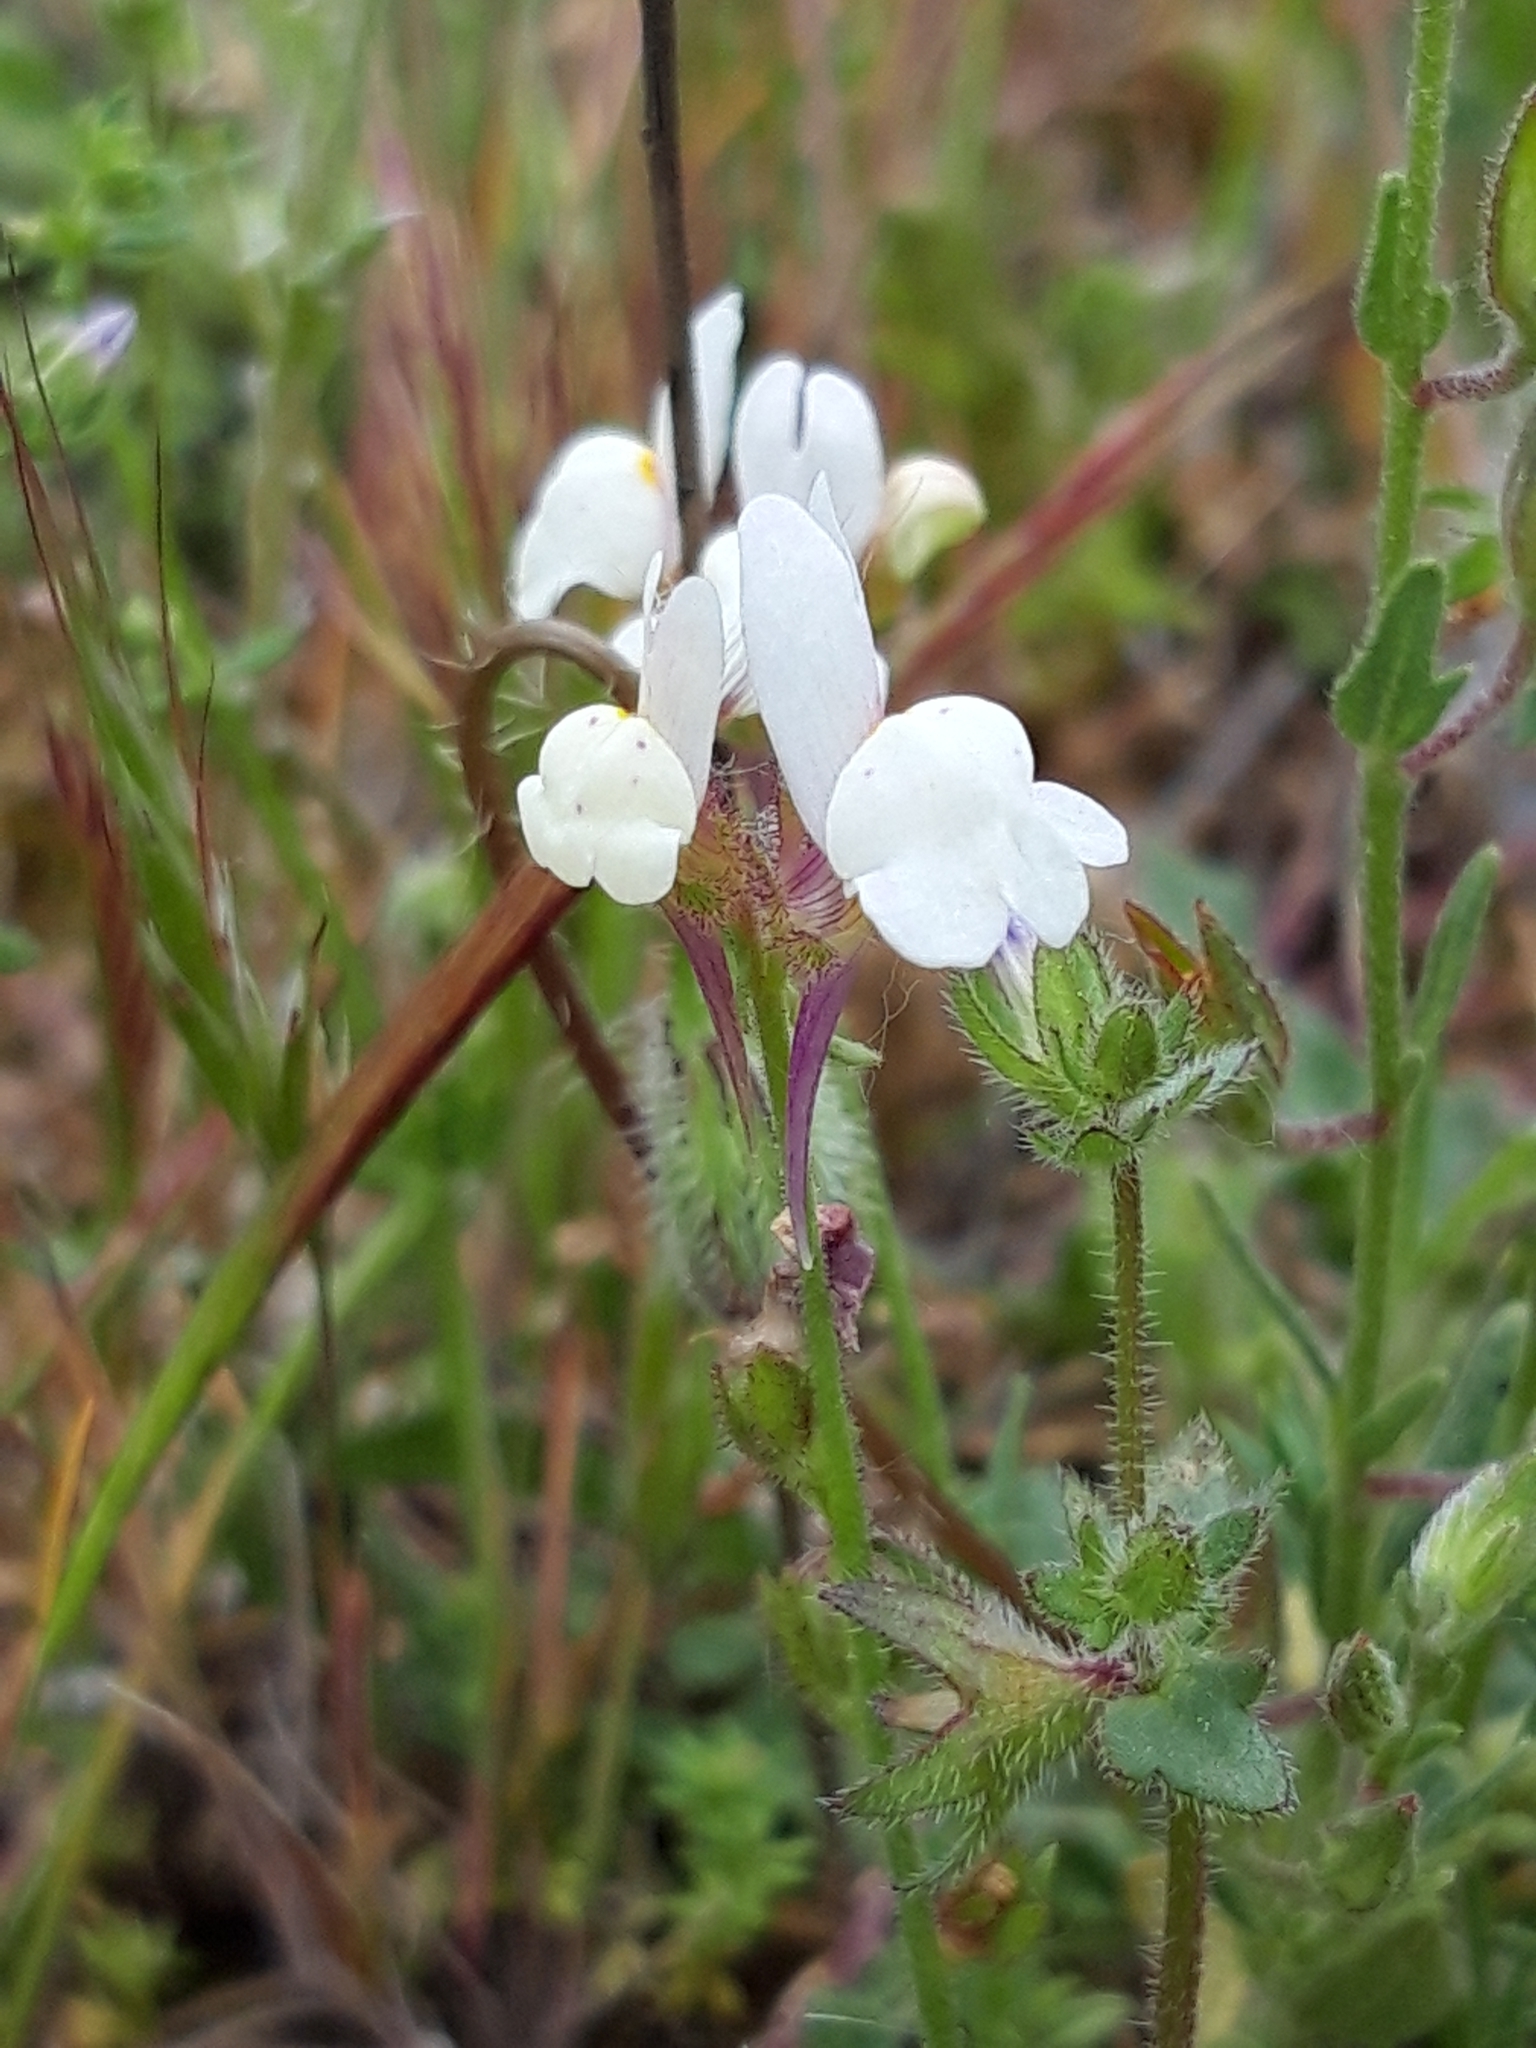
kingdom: Plantae
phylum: Tracheophyta
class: Magnoliopsida
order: Lamiales
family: Plantaginaceae
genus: Linaria
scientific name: Linaria amethystea
